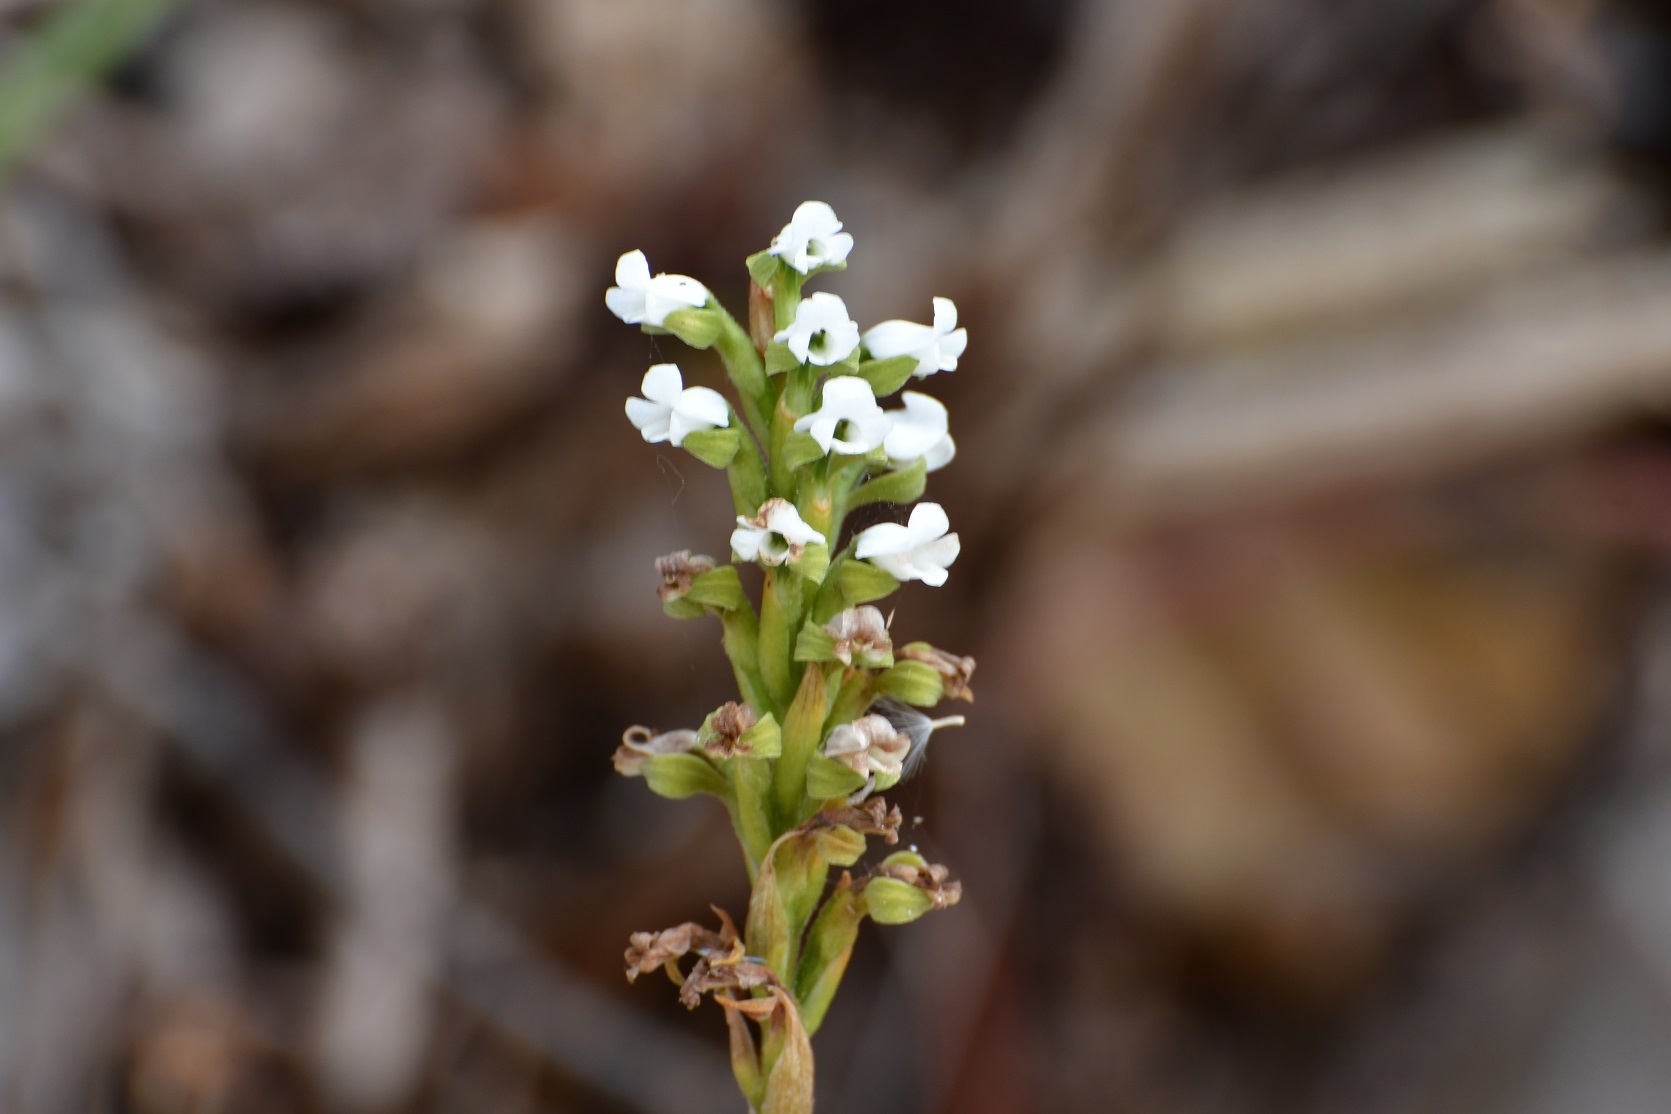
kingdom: Plantae
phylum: Tracheophyta
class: Liliopsida
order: Asparagales
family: Orchidaceae
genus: Aulosepalum
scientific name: Aulosepalum hemichrea
